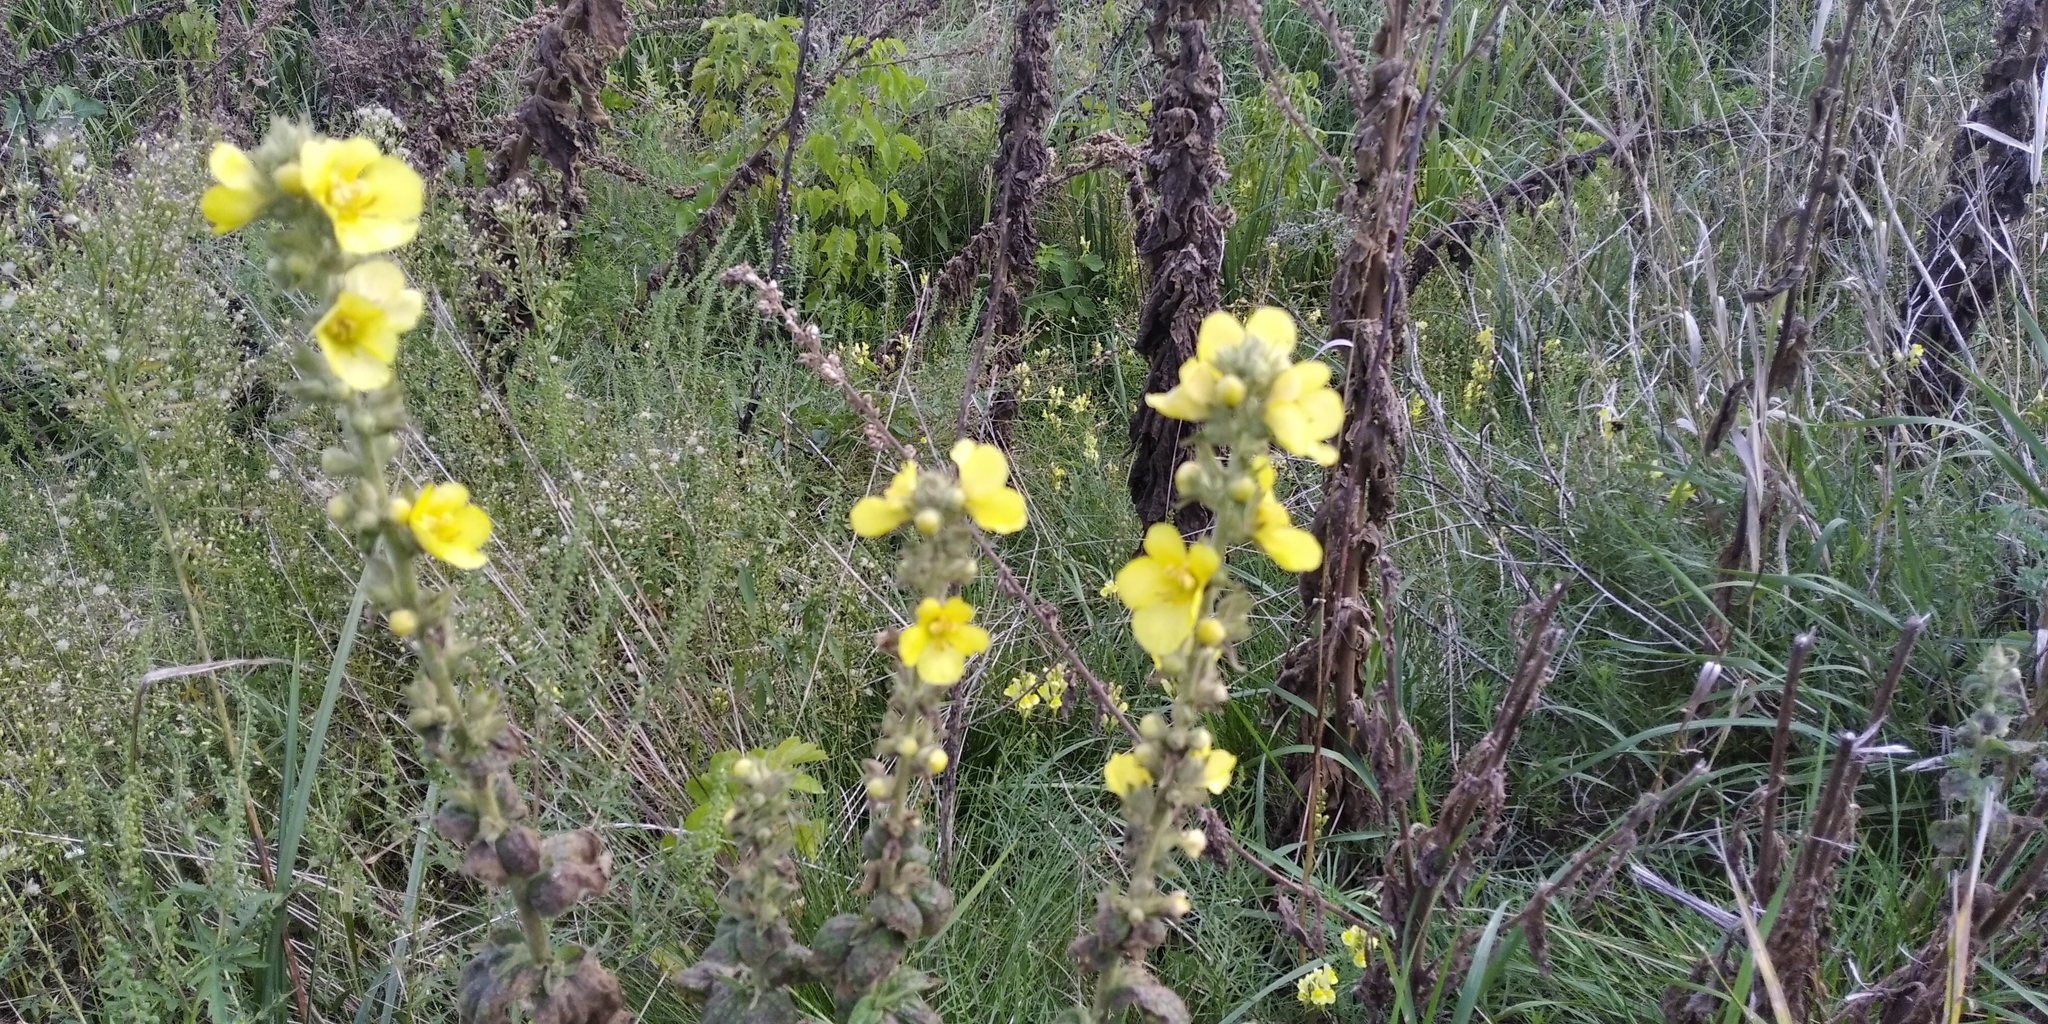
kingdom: Plantae
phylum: Tracheophyta
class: Magnoliopsida
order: Lamiales
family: Scrophulariaceae
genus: Verbascum
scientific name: Verbascum phlomoides
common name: Orange mullein
